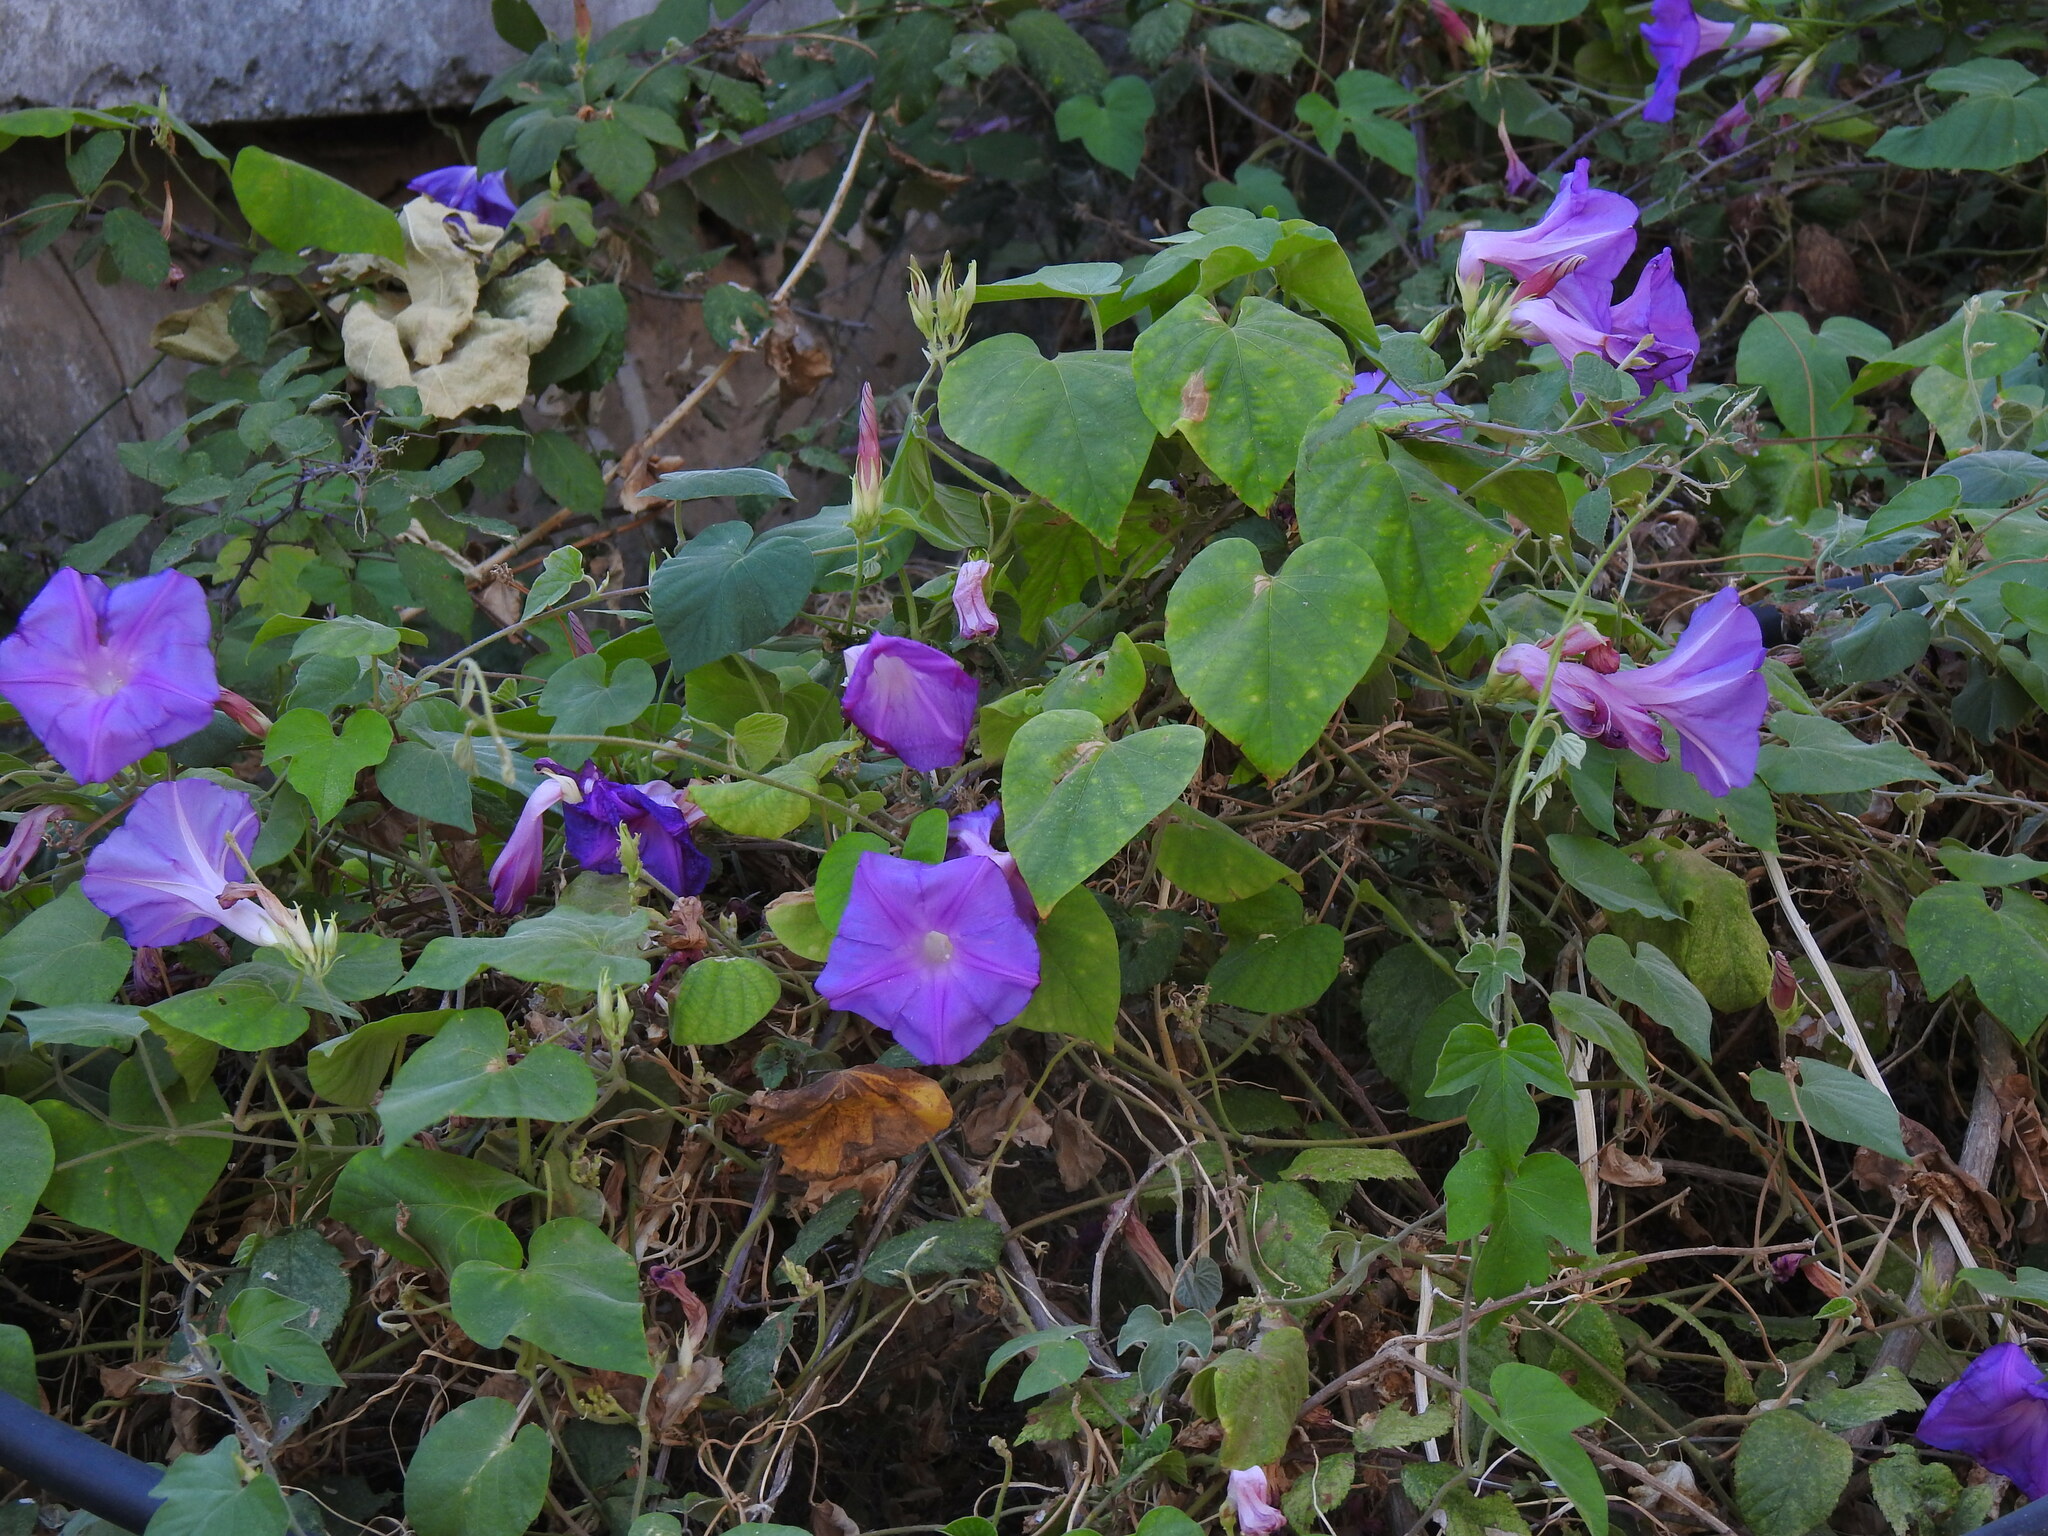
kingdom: Plantae
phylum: Tracheophyta
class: Magnoliopsida
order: Solanales
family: Convolvulaceae
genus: Ipomoea
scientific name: Ipomoea indica
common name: Blue dawnflower
